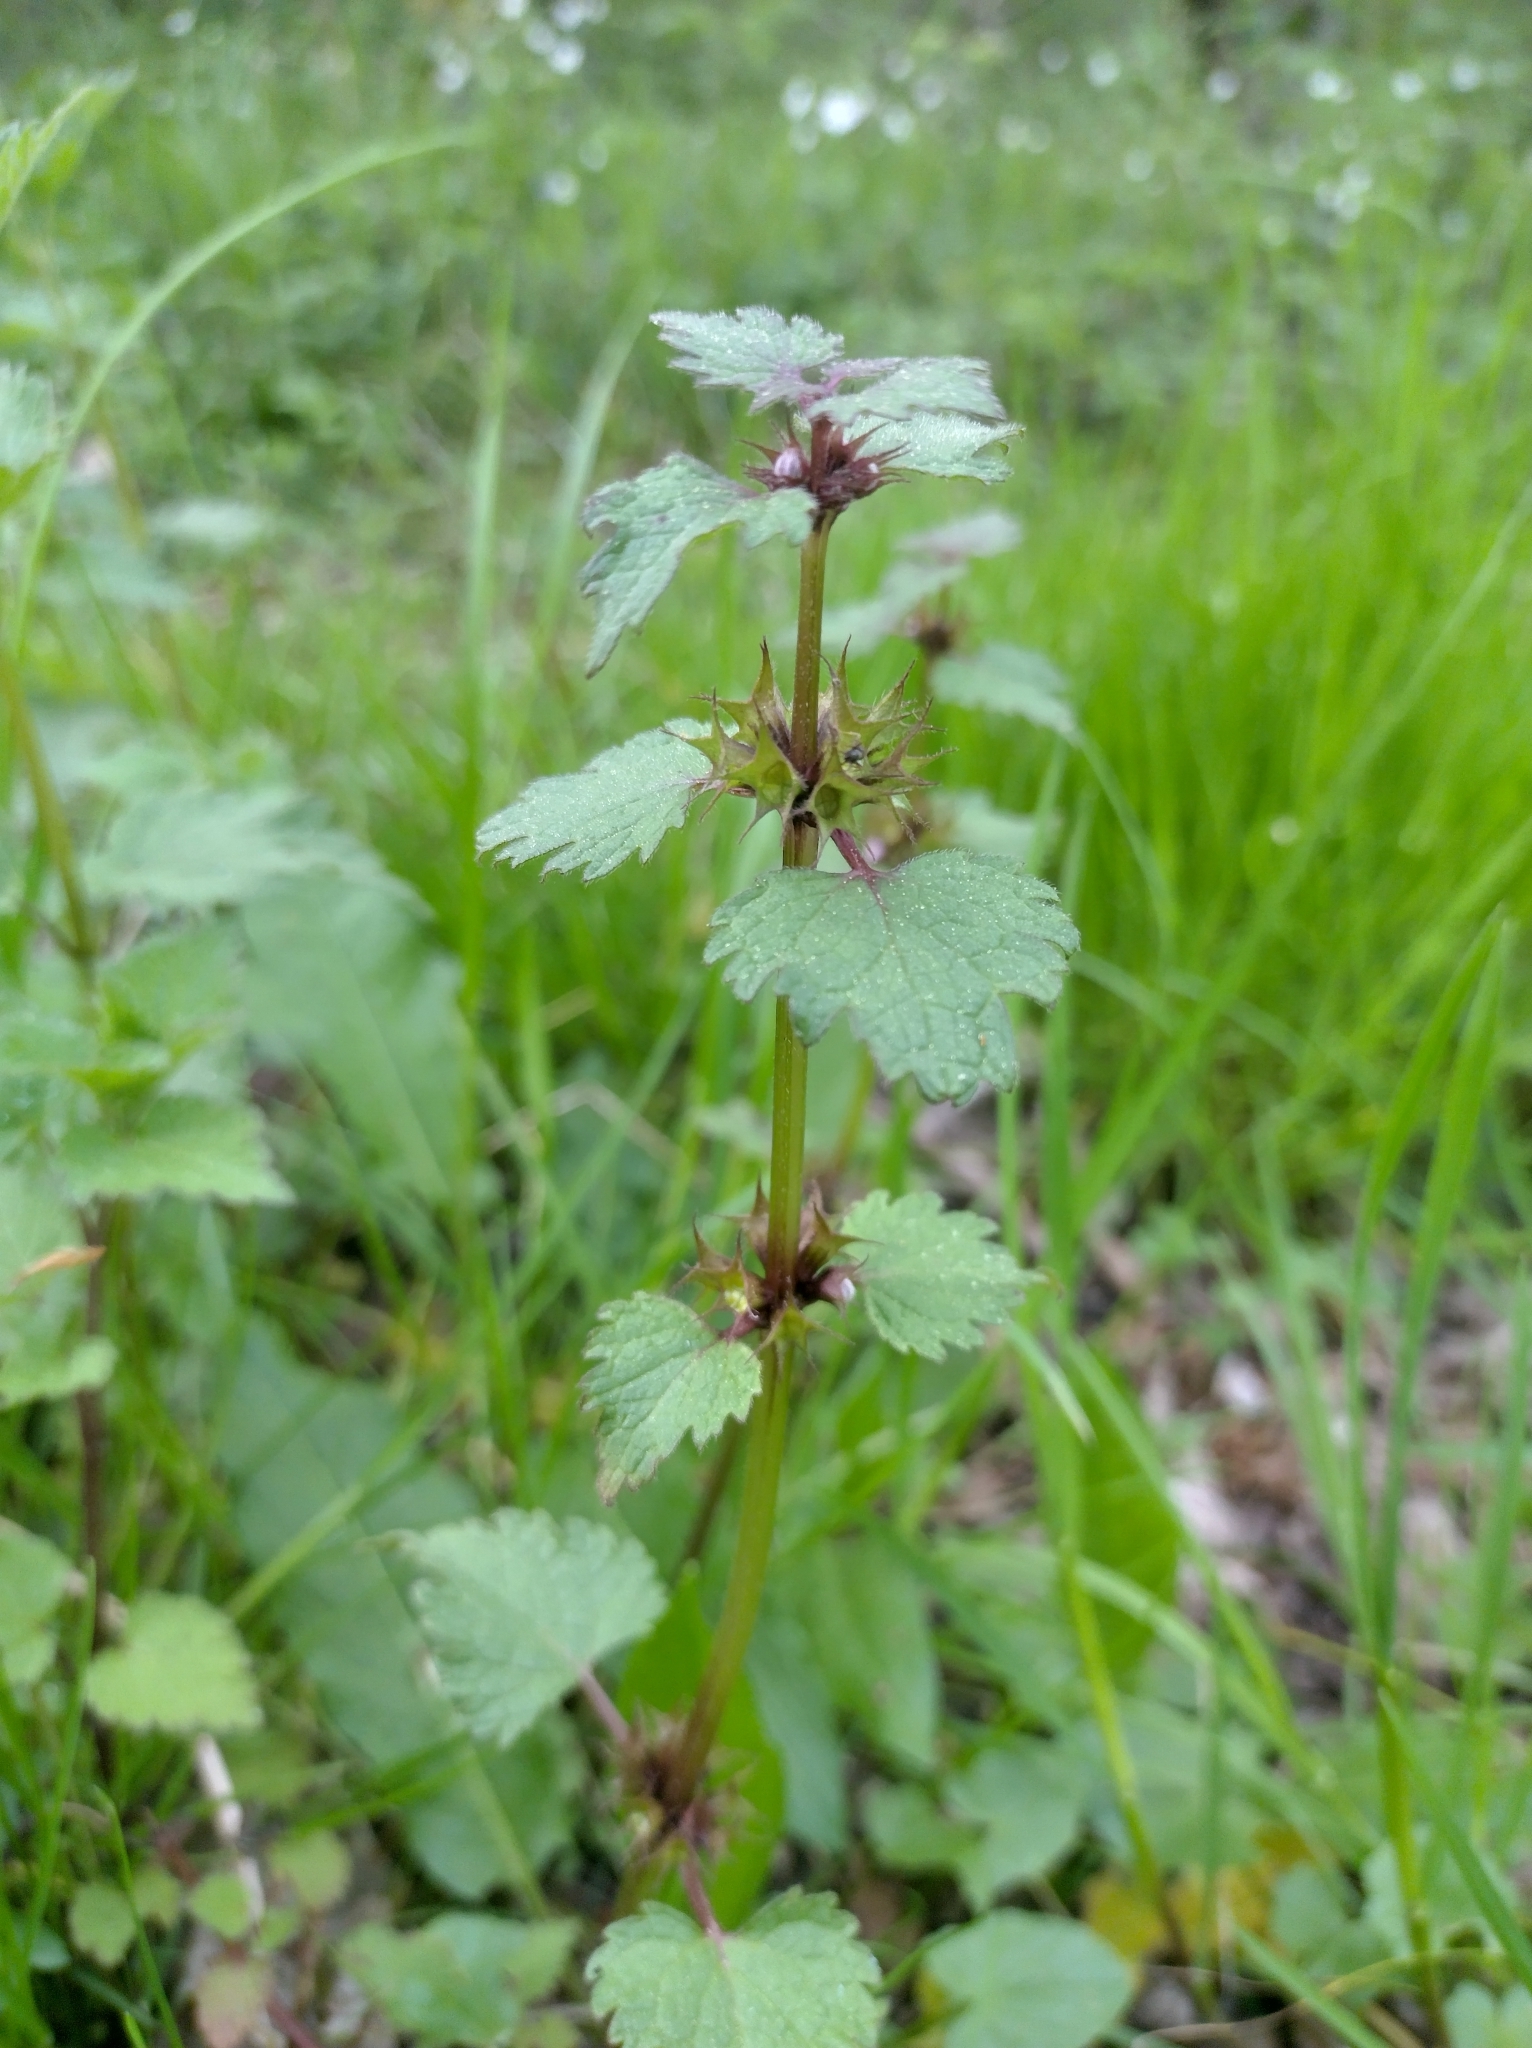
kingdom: Plantae
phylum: Tracheophyta
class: Magnoliopsida
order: Lamiales
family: Lamiaceae
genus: Lamium
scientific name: Lamium maculatum
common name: Spotted dead-nettle
